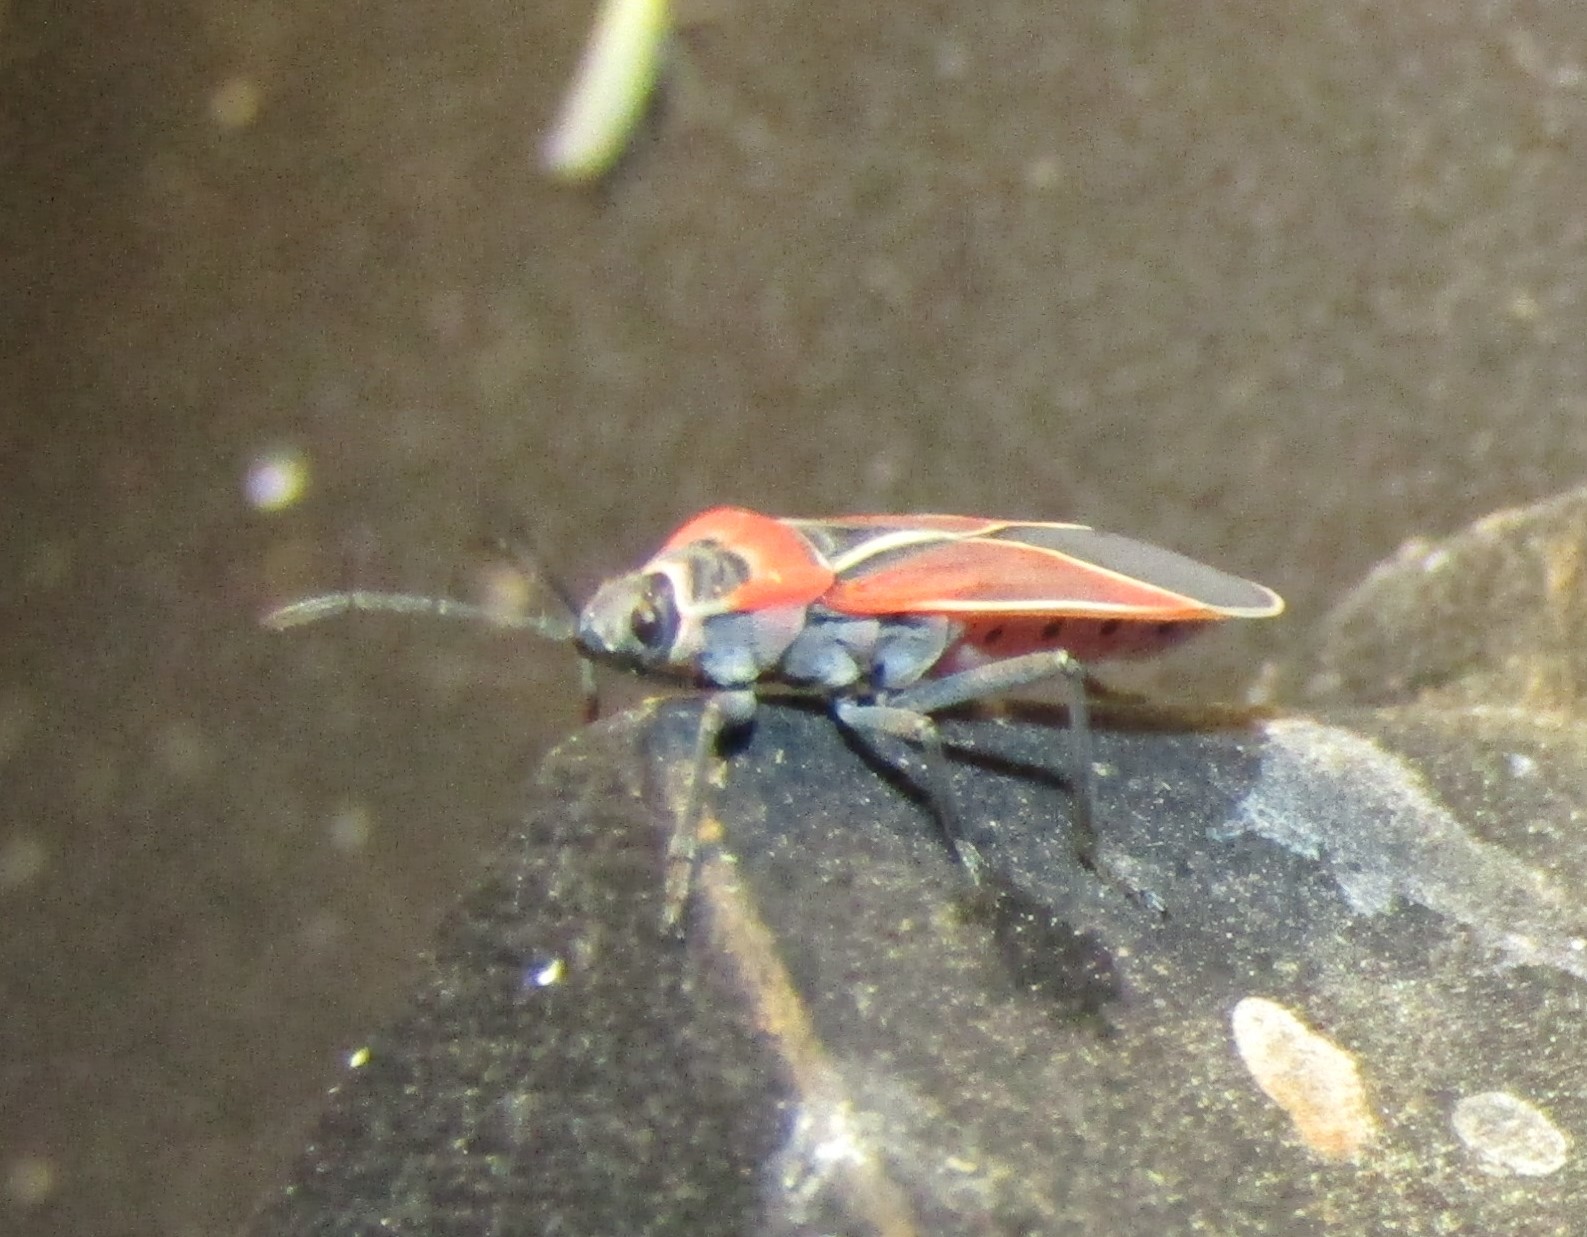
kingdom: Animalia
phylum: Arthropoda
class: Insecta
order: Hemiptera
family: Lygaeidae
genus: Neacoryphus
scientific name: Neacoryphus bicrucis
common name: Lygaeid bug
